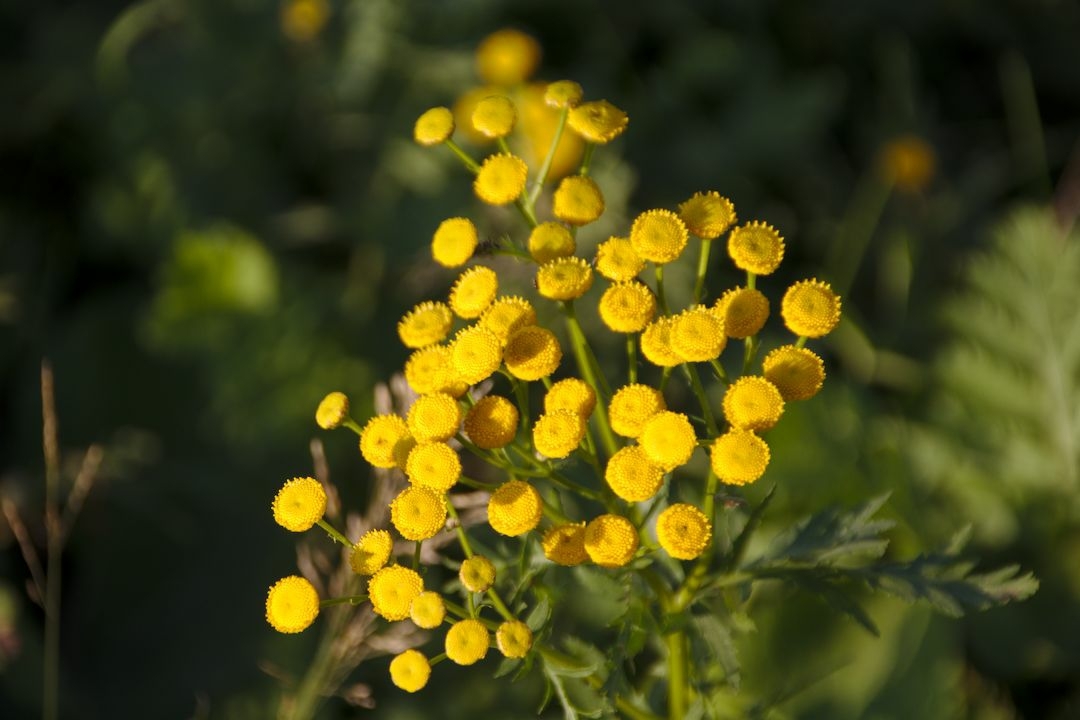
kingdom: Plantae
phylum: Tracheophyta
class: Magnoliopsida
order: Asterales
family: Asteraceae
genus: Tanacetum
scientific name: Tanacetum vulgare
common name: Common tansy
